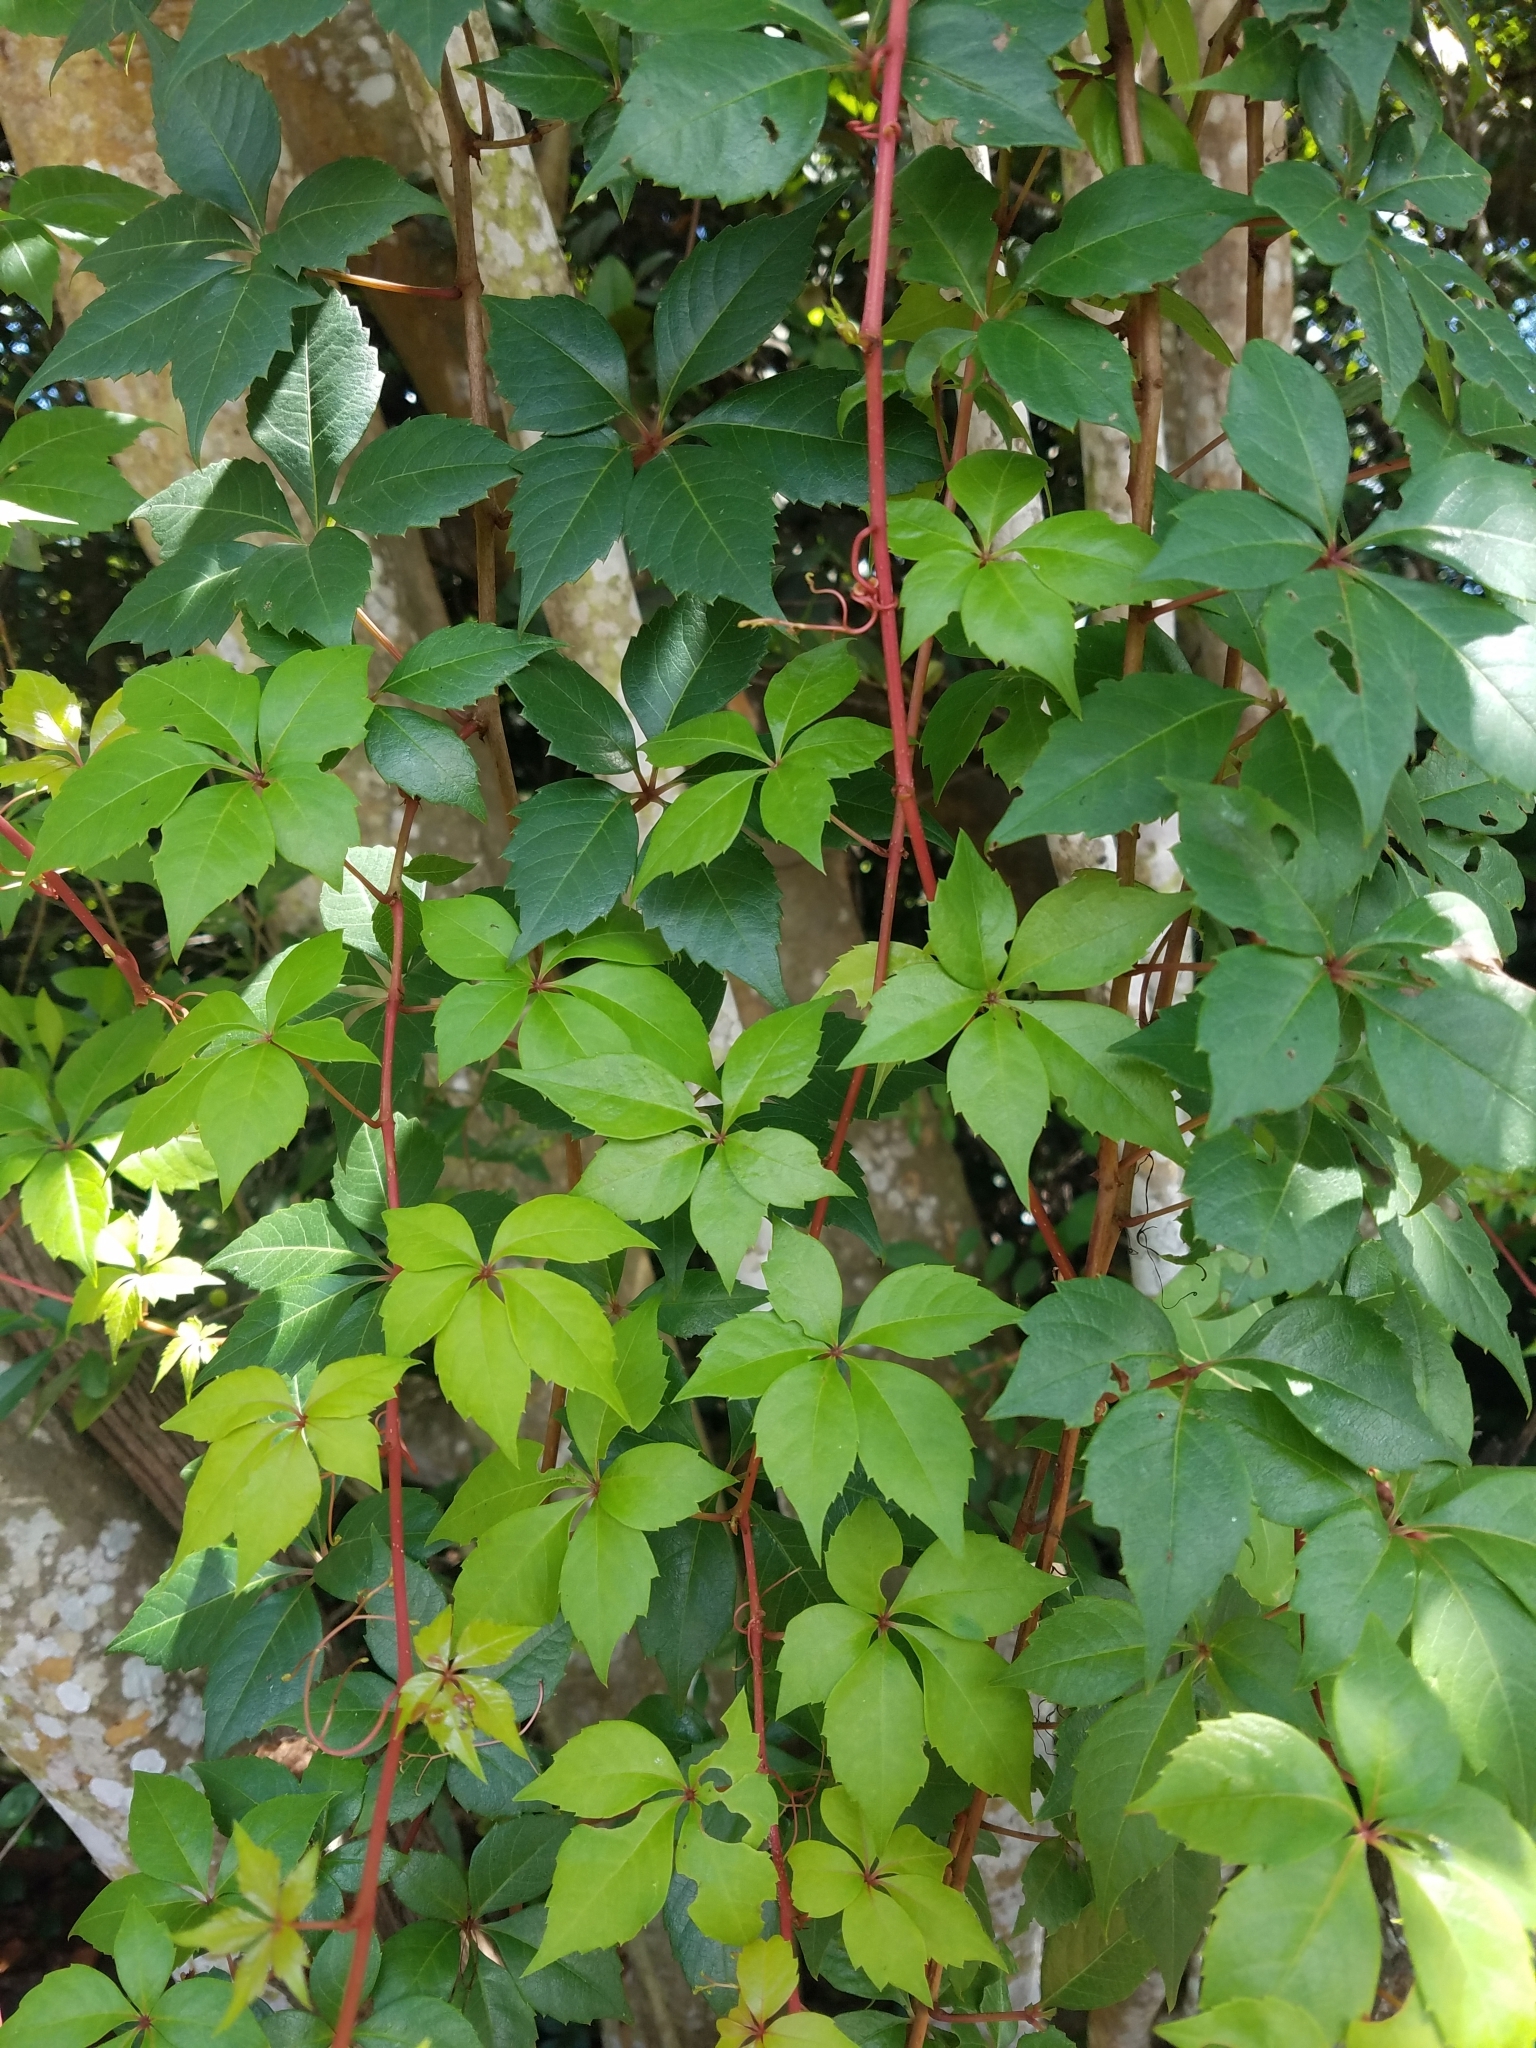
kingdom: Plantae
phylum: Tracheophyta
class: Magnoliopsida
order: Vitales
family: Vitaceae
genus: Parthenocissus
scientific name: Parthenocissus quinquefolia
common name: Virginia-creeper
